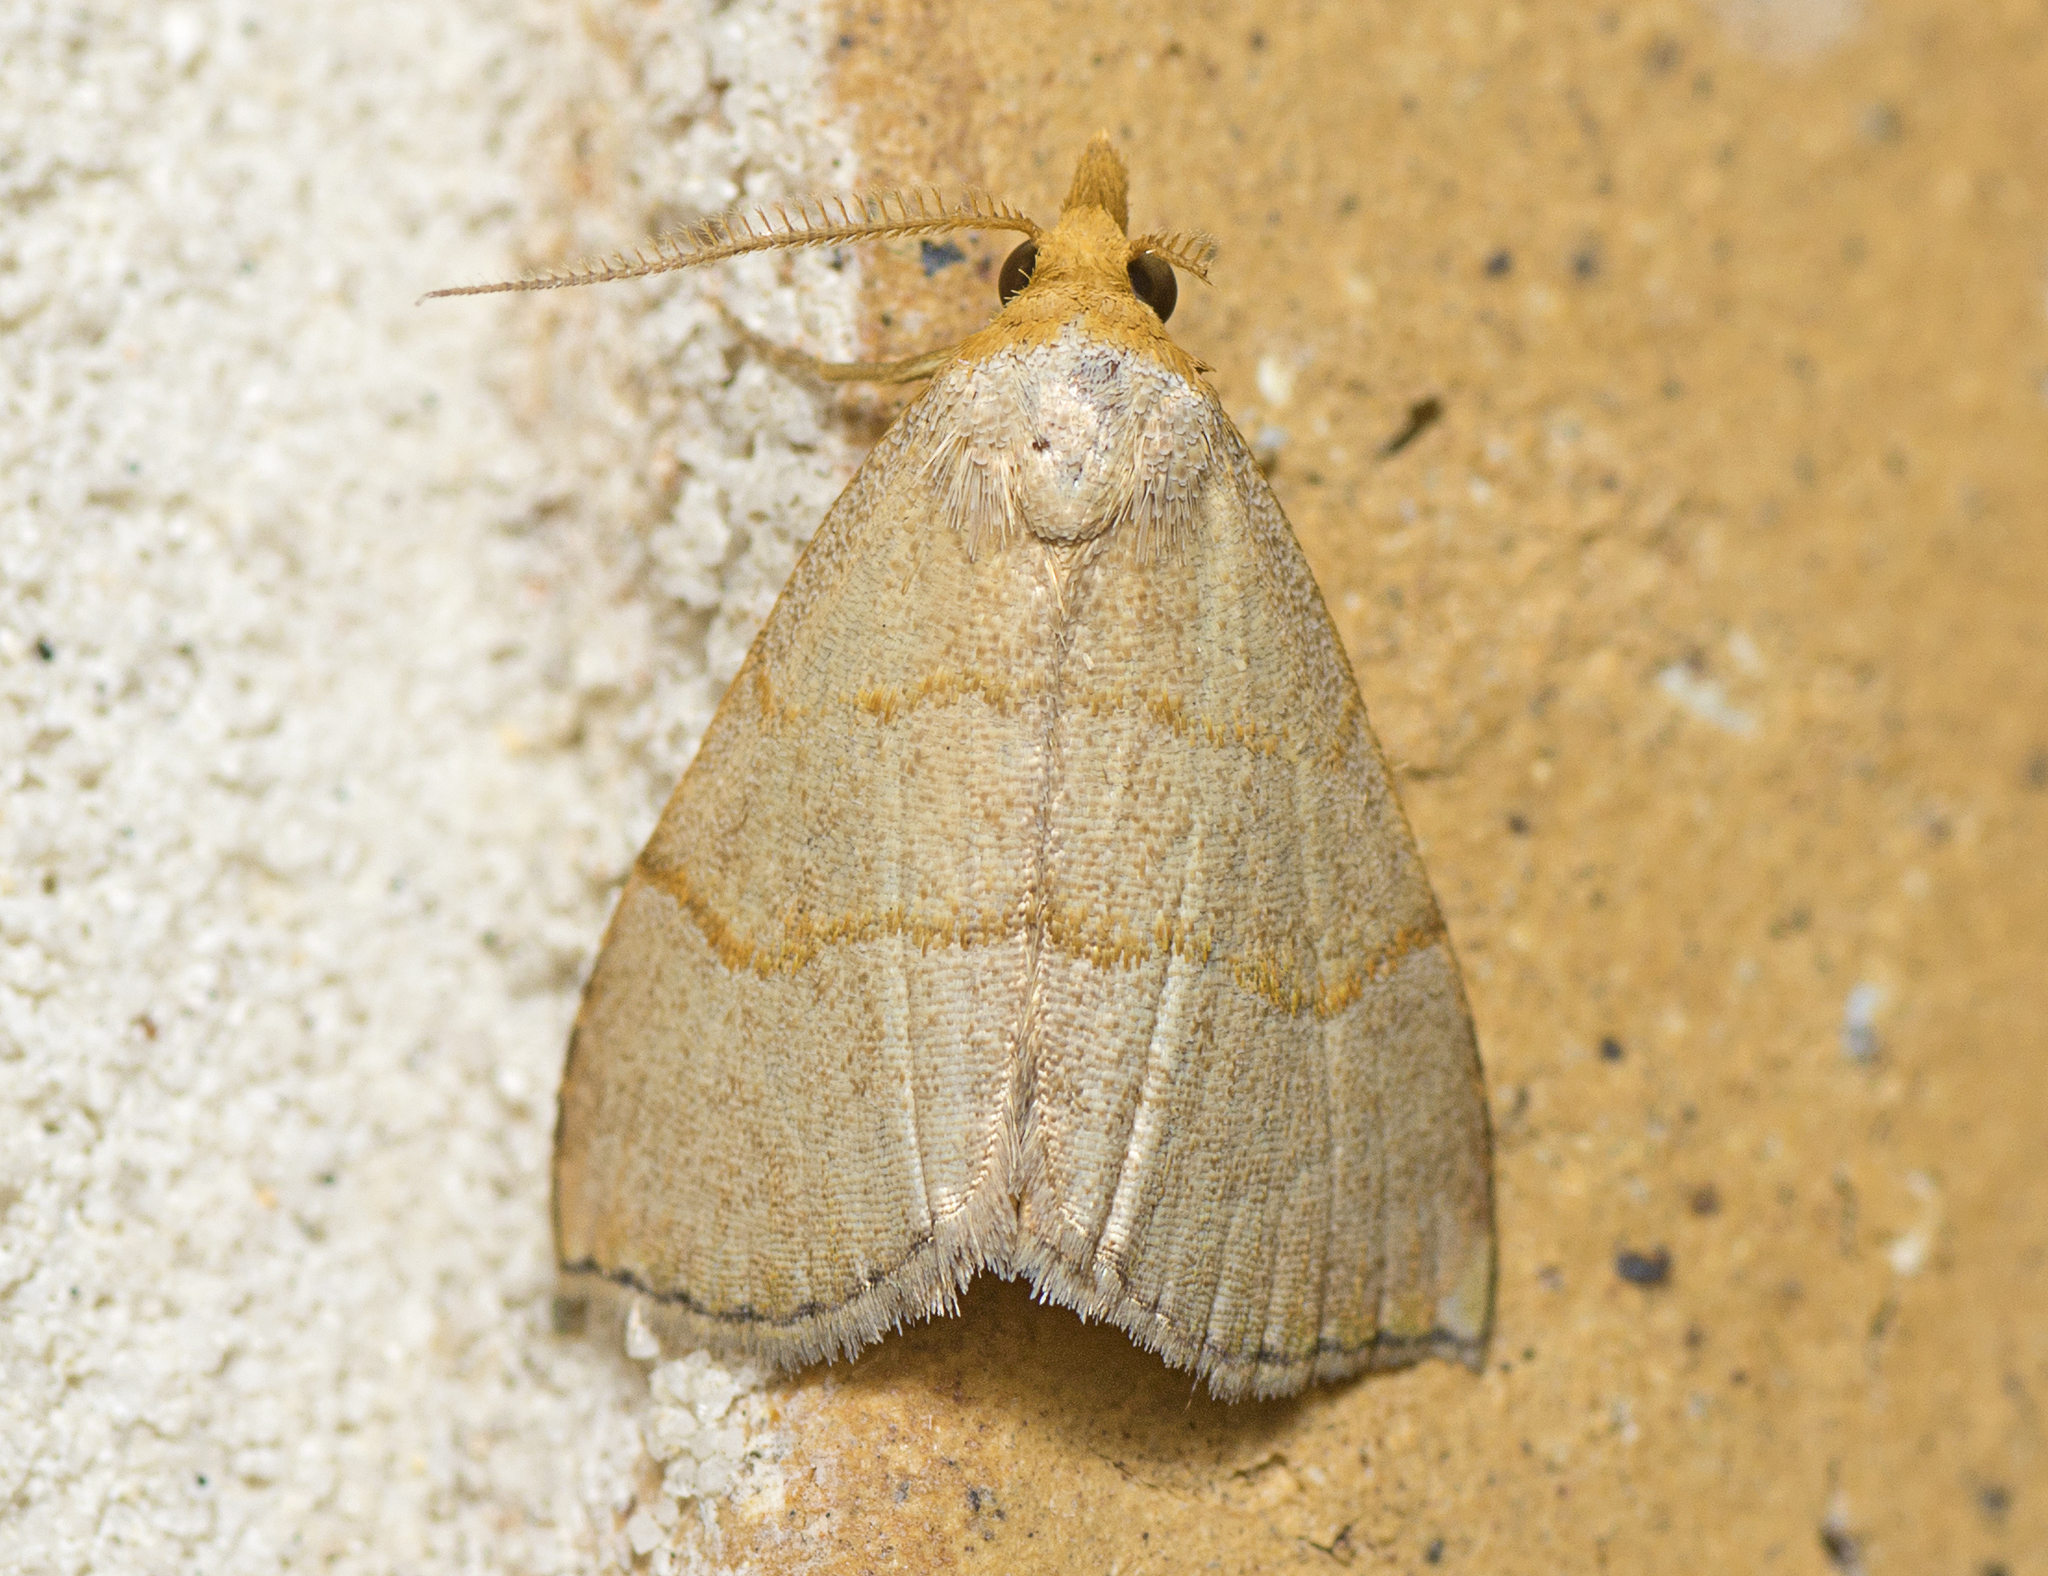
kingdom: Animalia
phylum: Arthropoda
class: Insecta
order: Lepidoptera
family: Erebidae
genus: Meranda
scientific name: Meranda susialis
